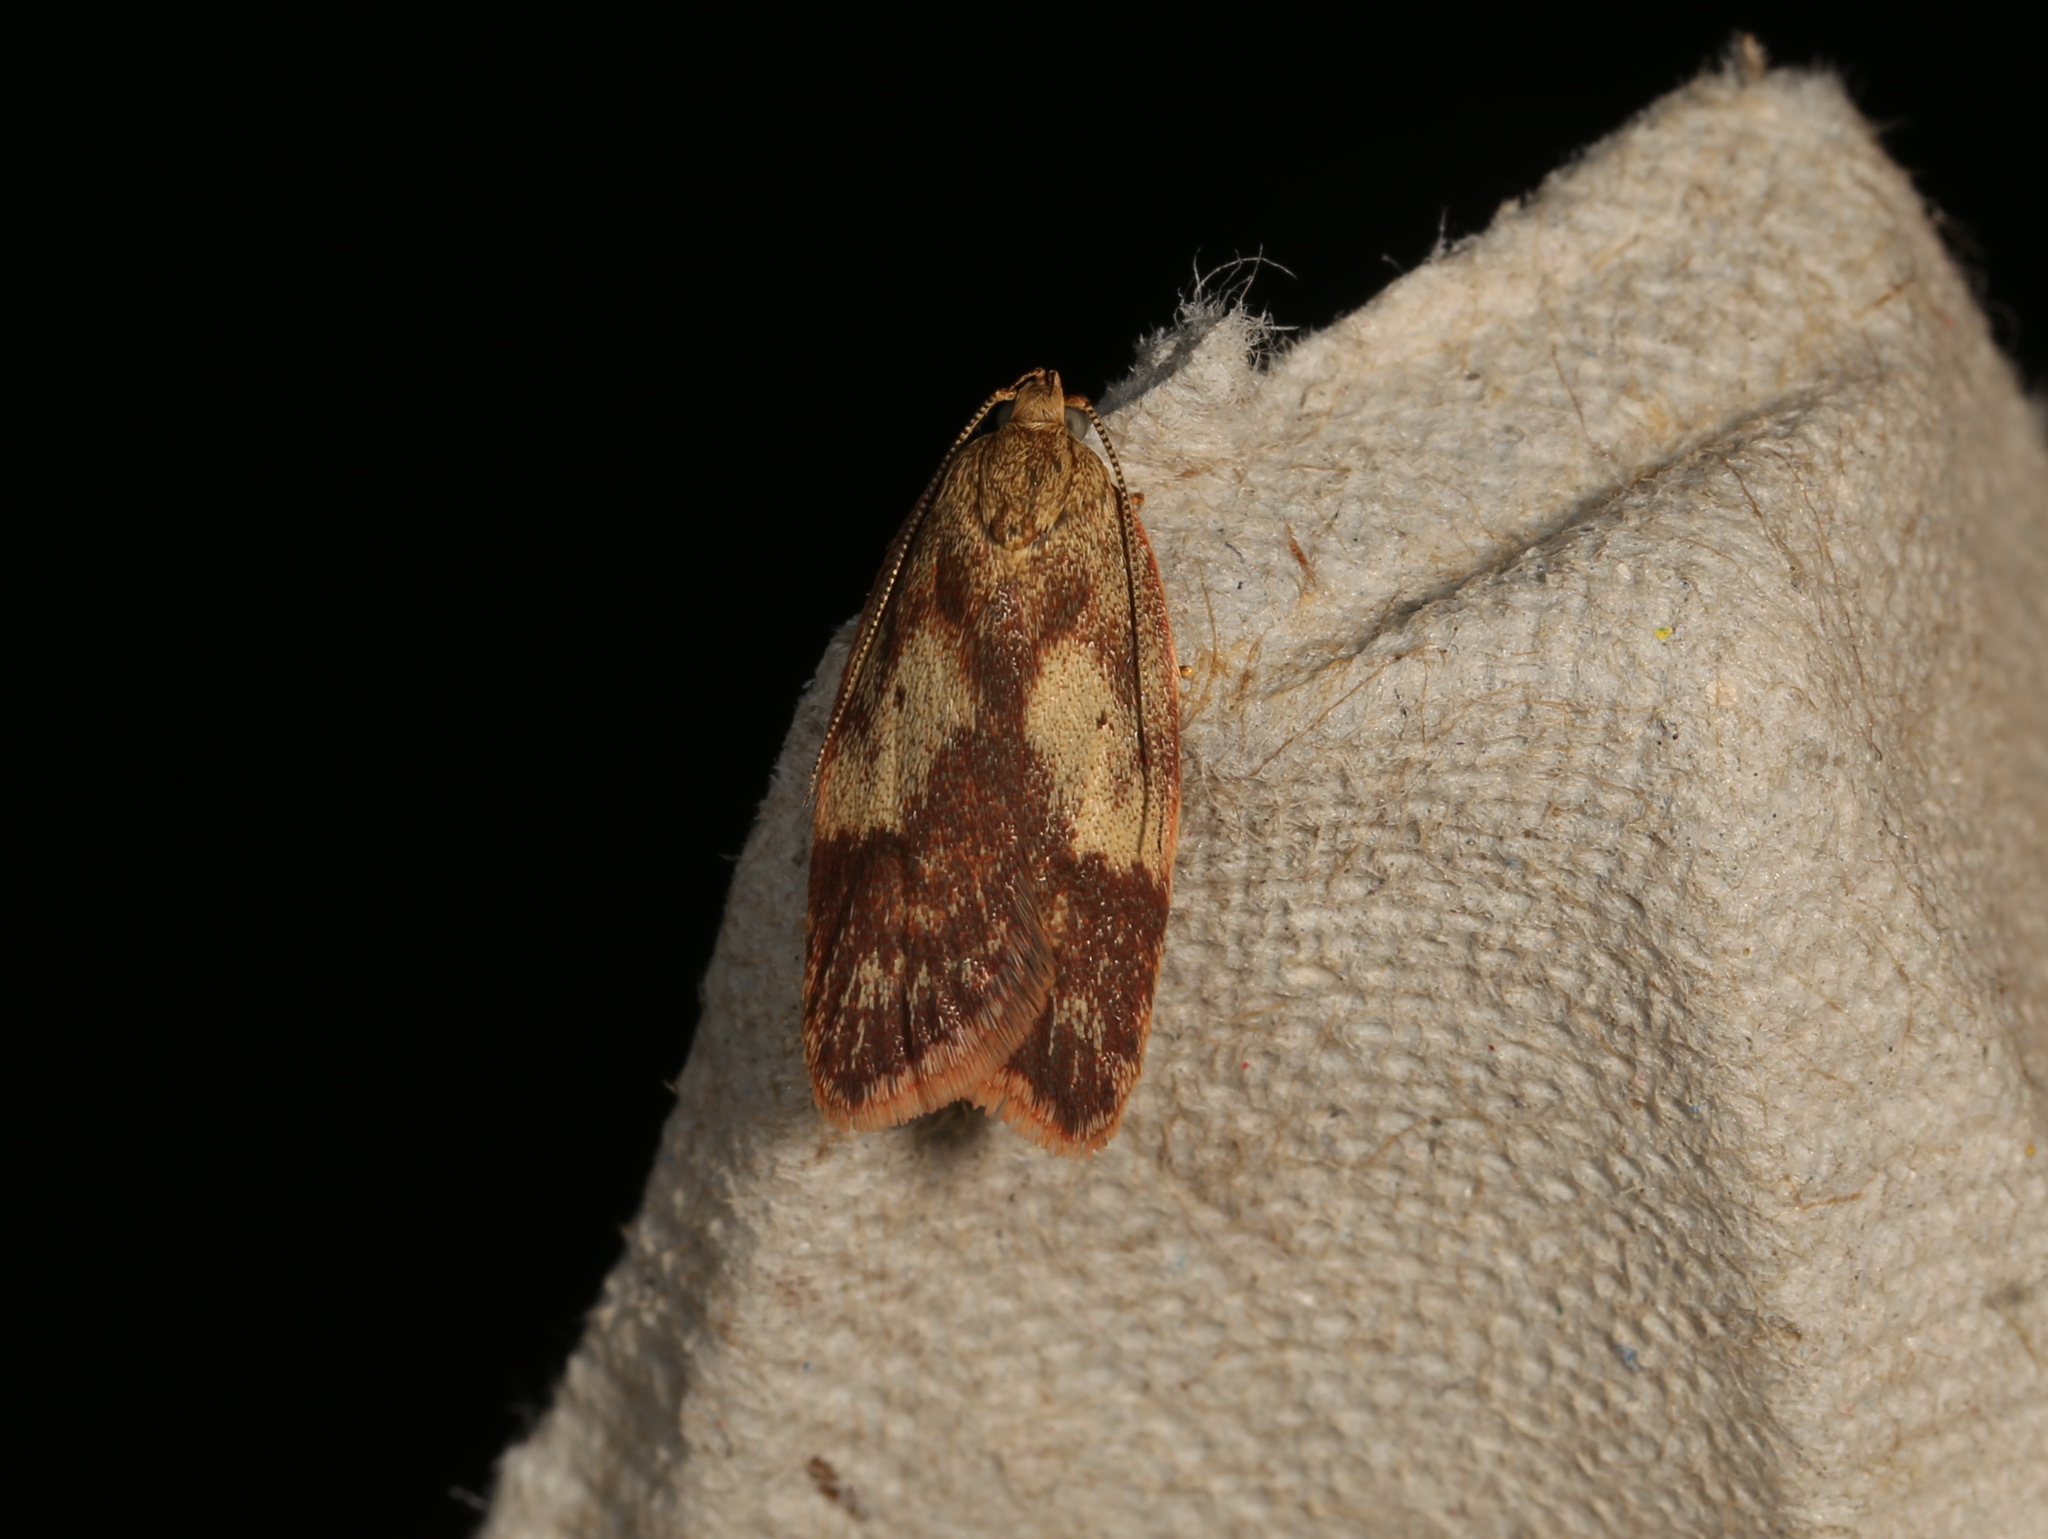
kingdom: Animalia
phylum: Arthropoda
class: Insecta
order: Lepidoptera
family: Oecophoridae
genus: Garrha
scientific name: Garrha absumptella
